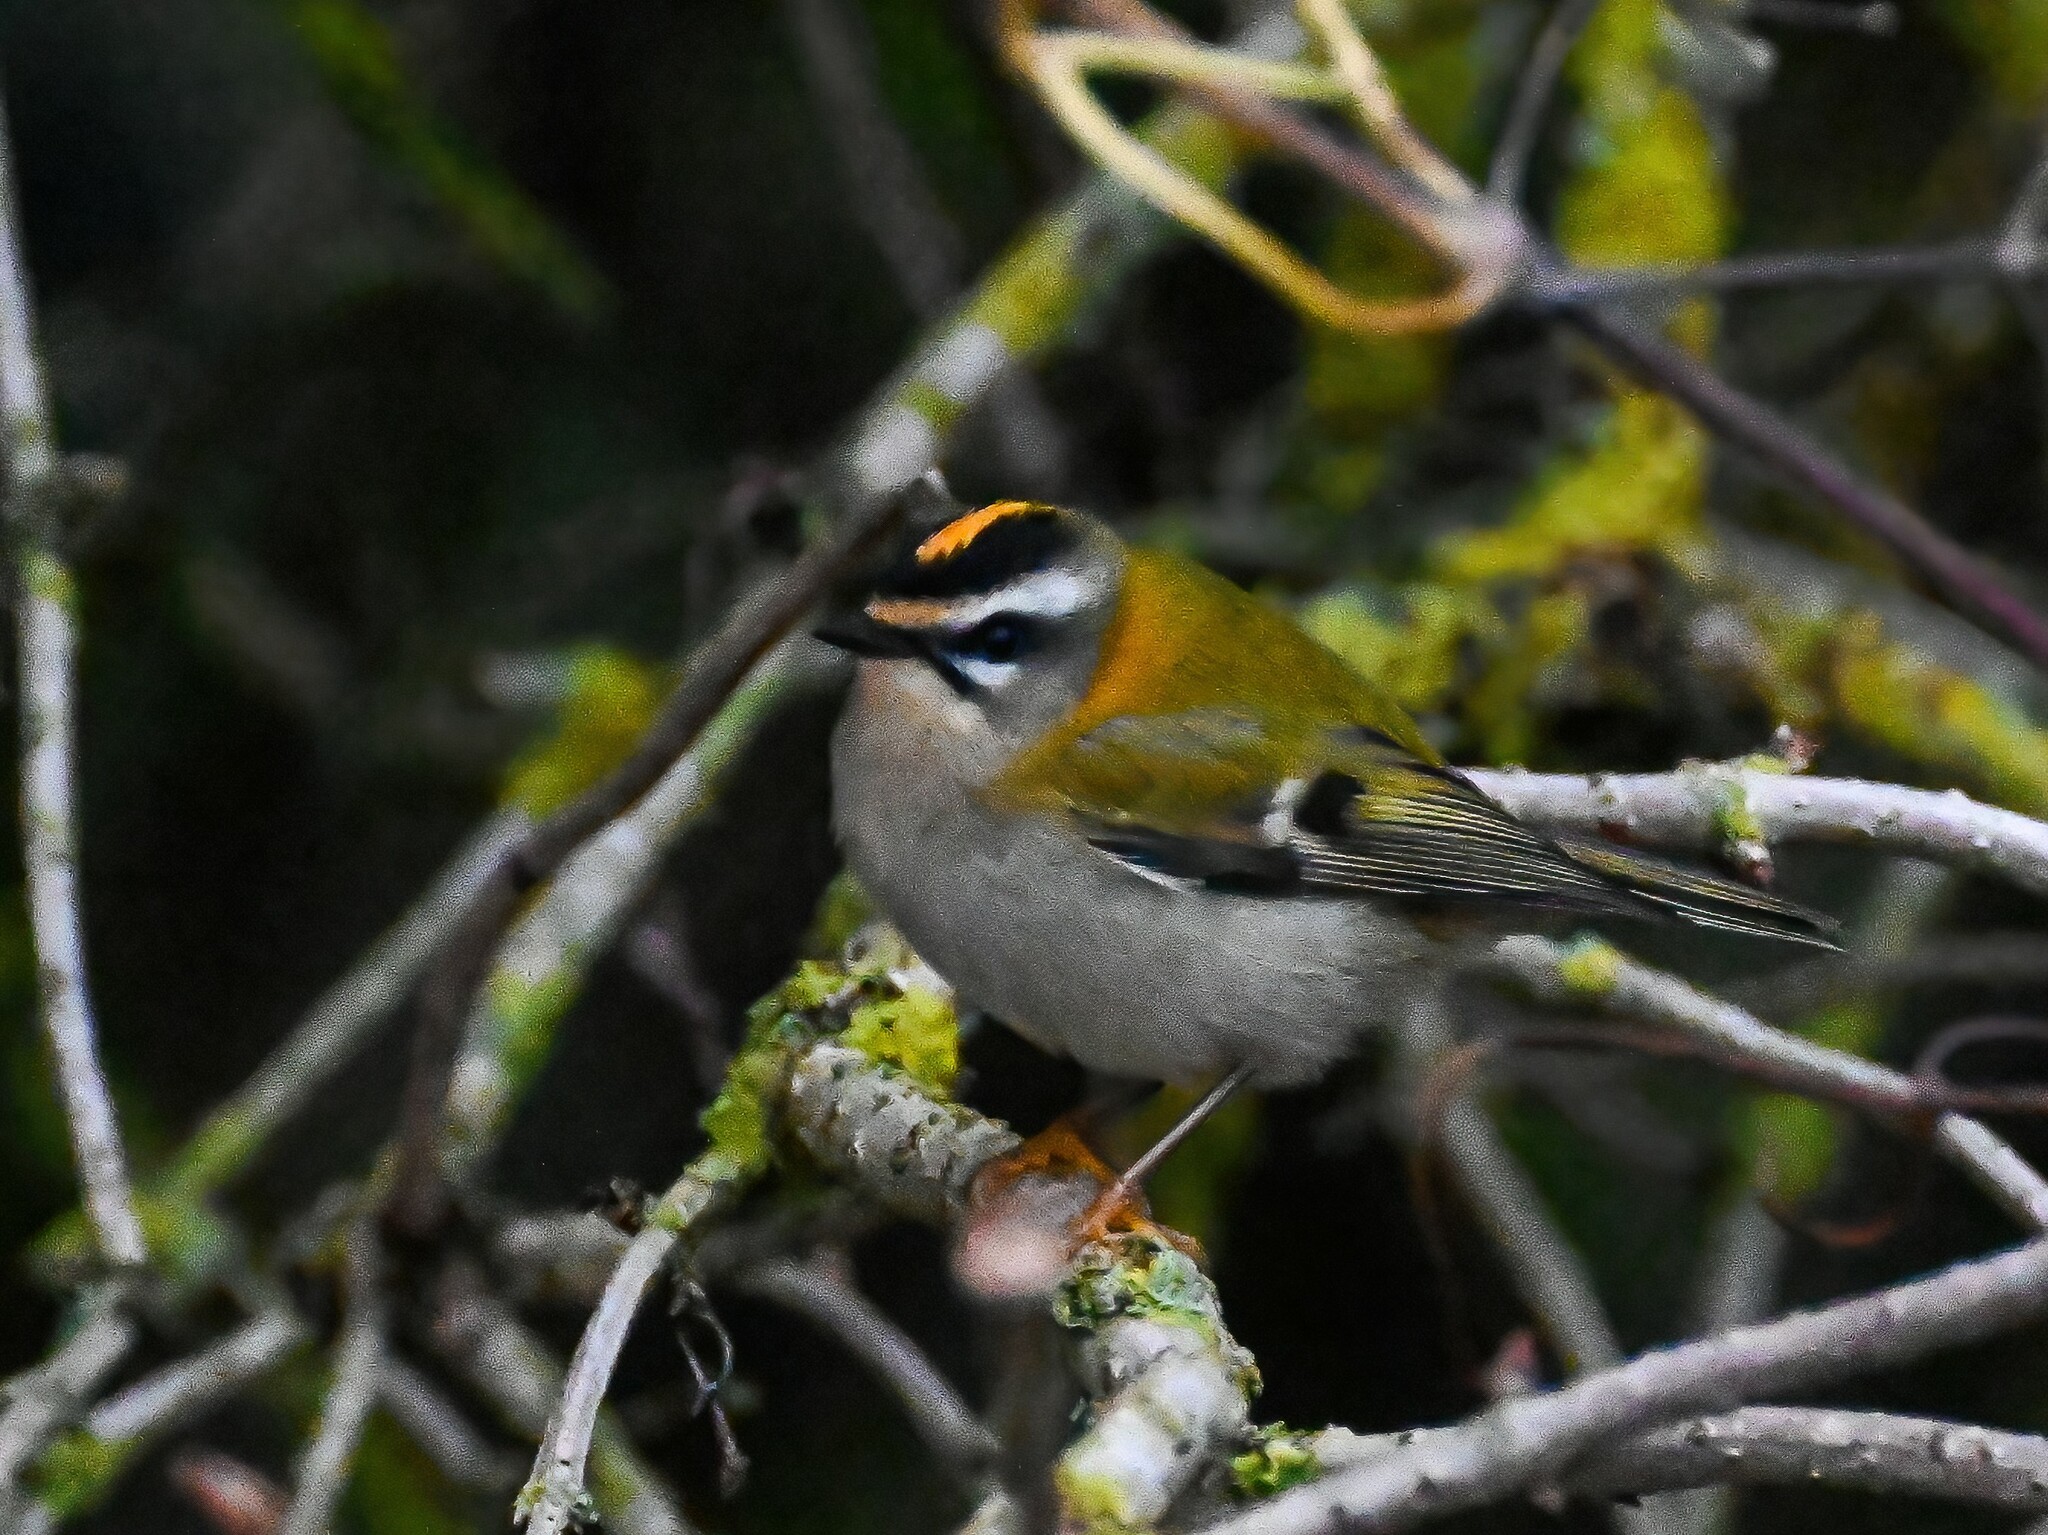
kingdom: Animalia
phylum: Chordata
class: Aves
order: Passeriformes
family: Regulidae
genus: Regulus
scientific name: Regulus ignicapilla
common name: Firecrest
